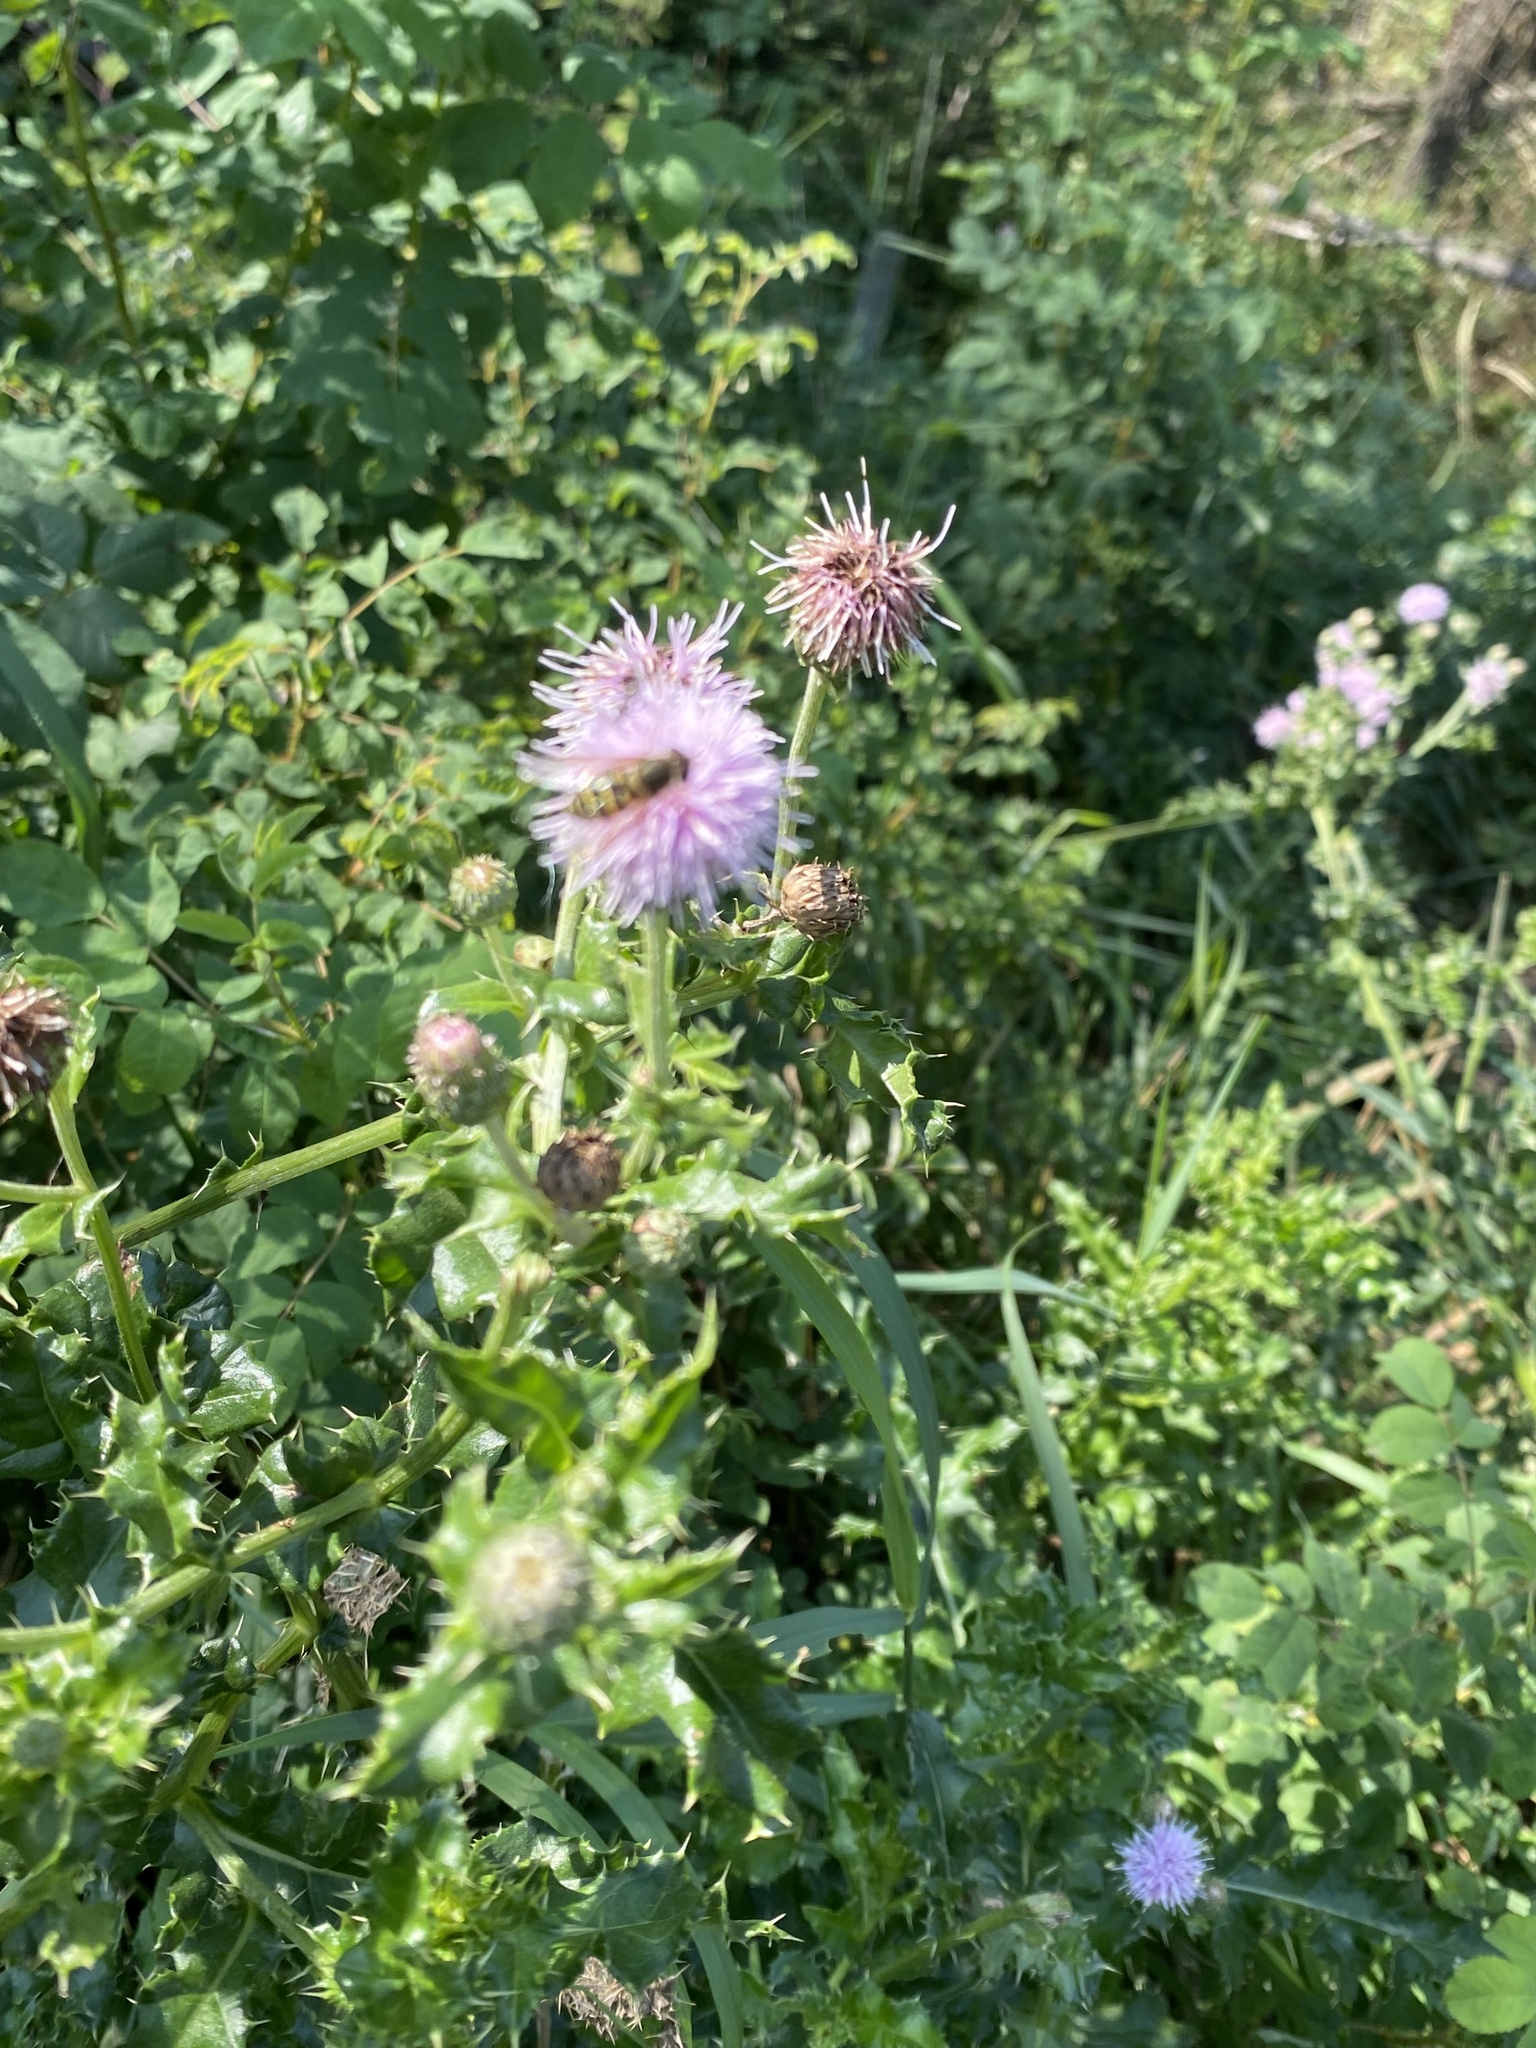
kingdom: Plantae
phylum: Tracheophyta
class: Magnoliopsida
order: Asterales
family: Asteraceae
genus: Cirsium
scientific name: Cirsium arvense
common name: Creeping thistle
